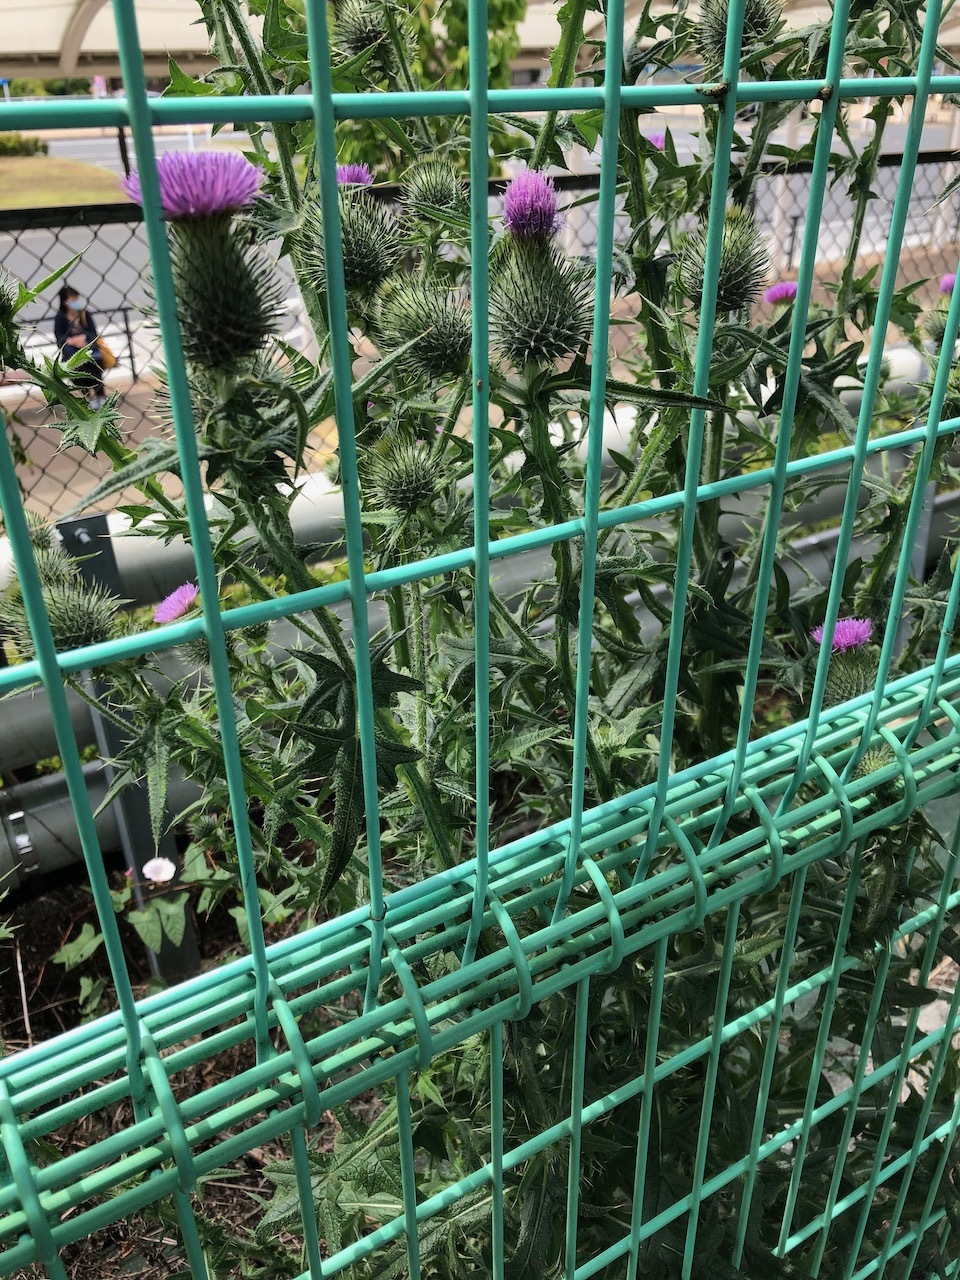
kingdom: Plantae
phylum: Tracheophyta
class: Magnoliopsida
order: Asterales
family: Asteraceae
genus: Cirsium
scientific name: Cirsium vulgare
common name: Bull thistle
